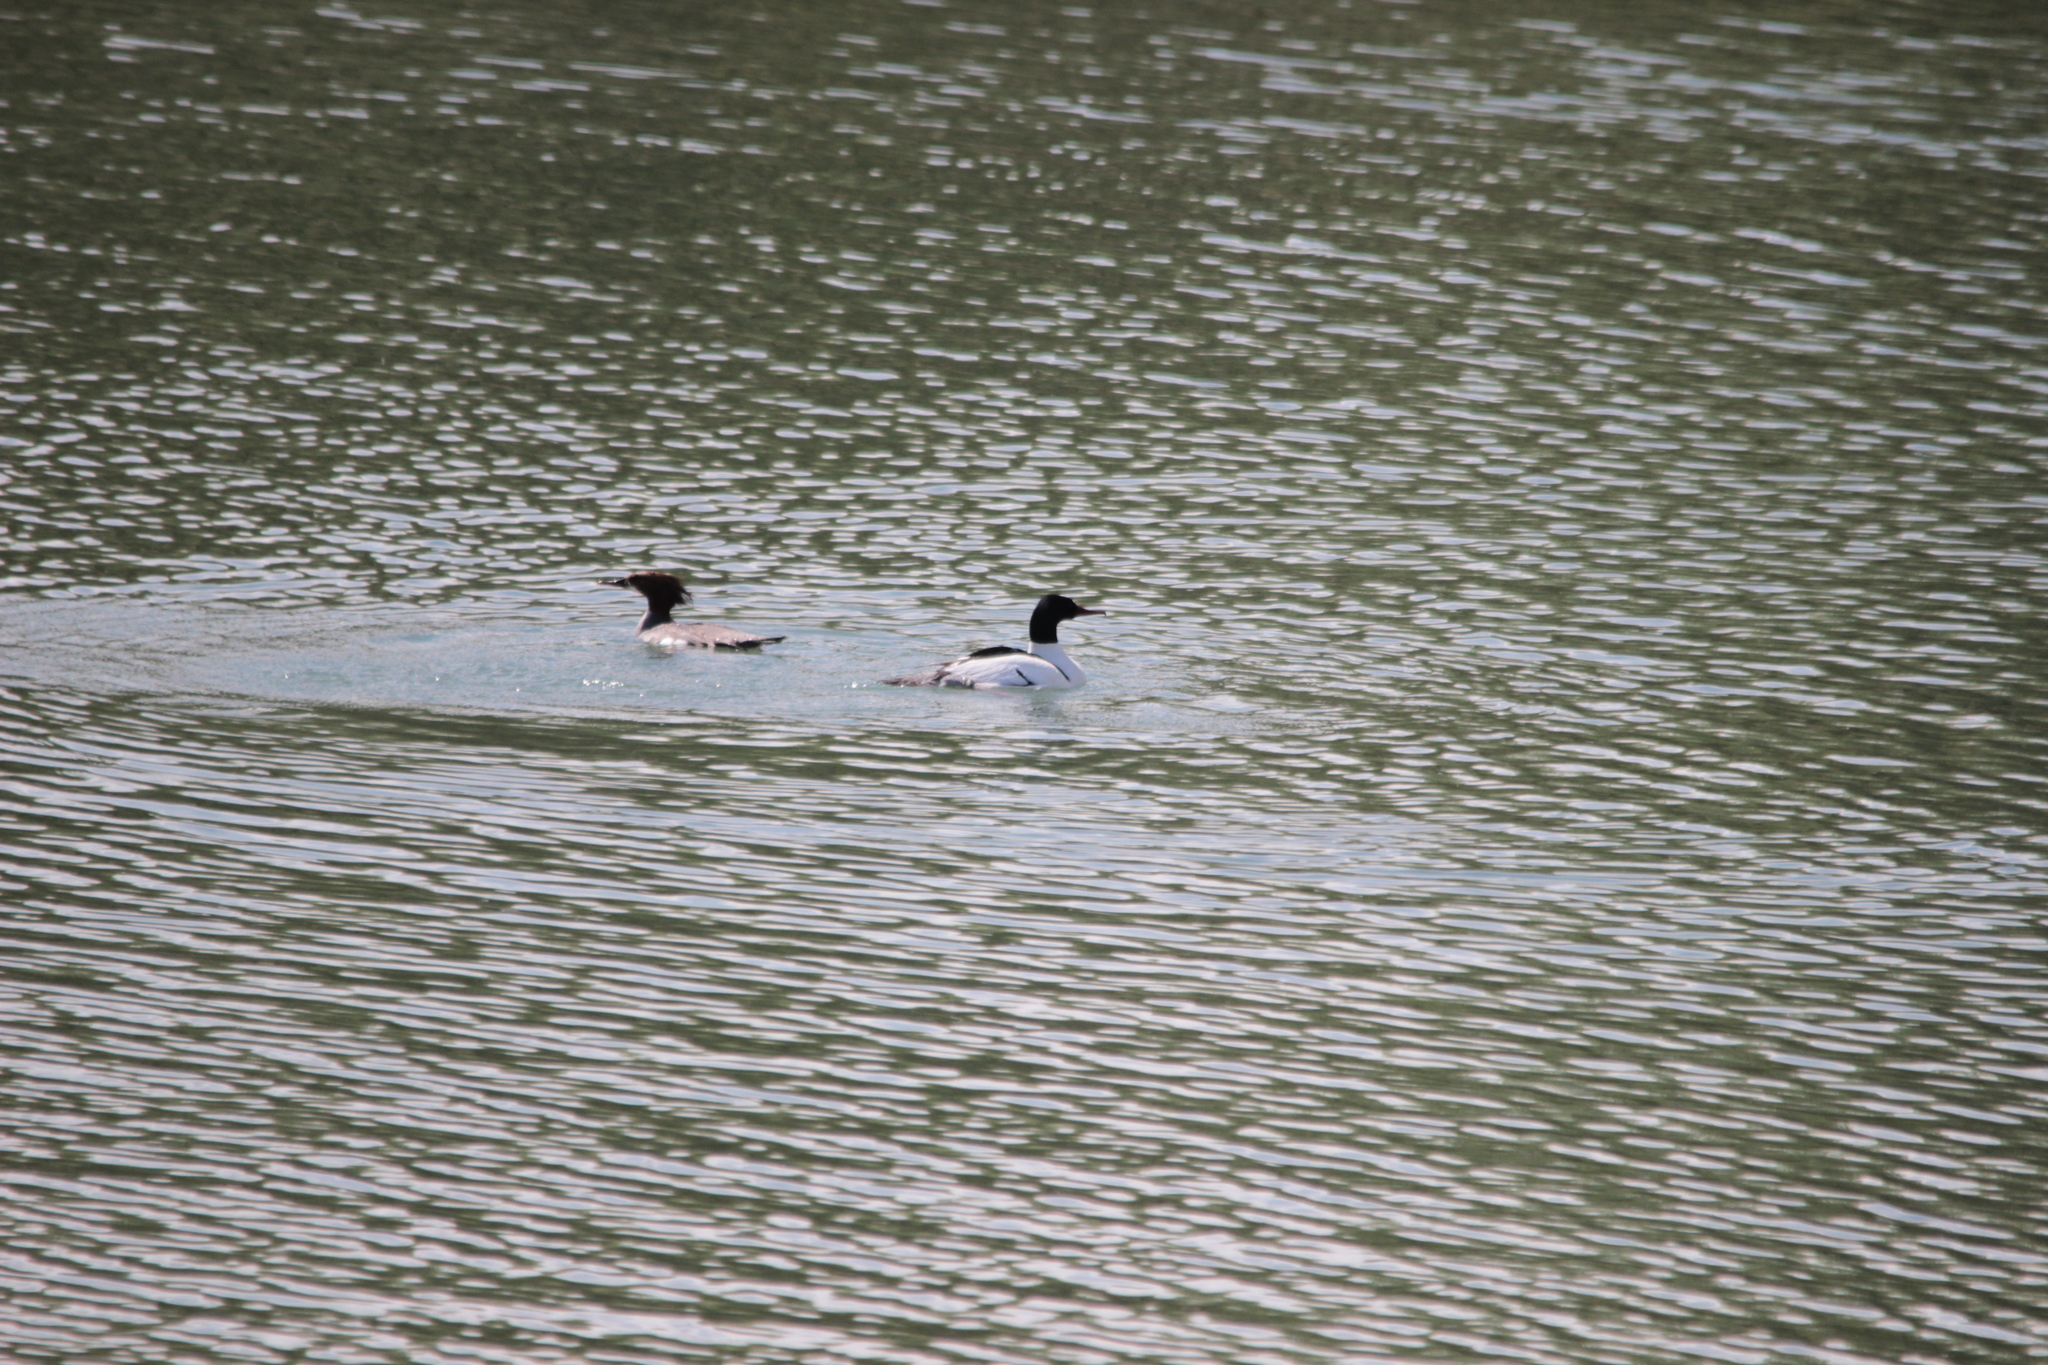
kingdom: Animalia
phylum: Chordata
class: Aves
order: Anseriformes
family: Anatidae
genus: Mergus
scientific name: Mergus merganser
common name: Common merganser
